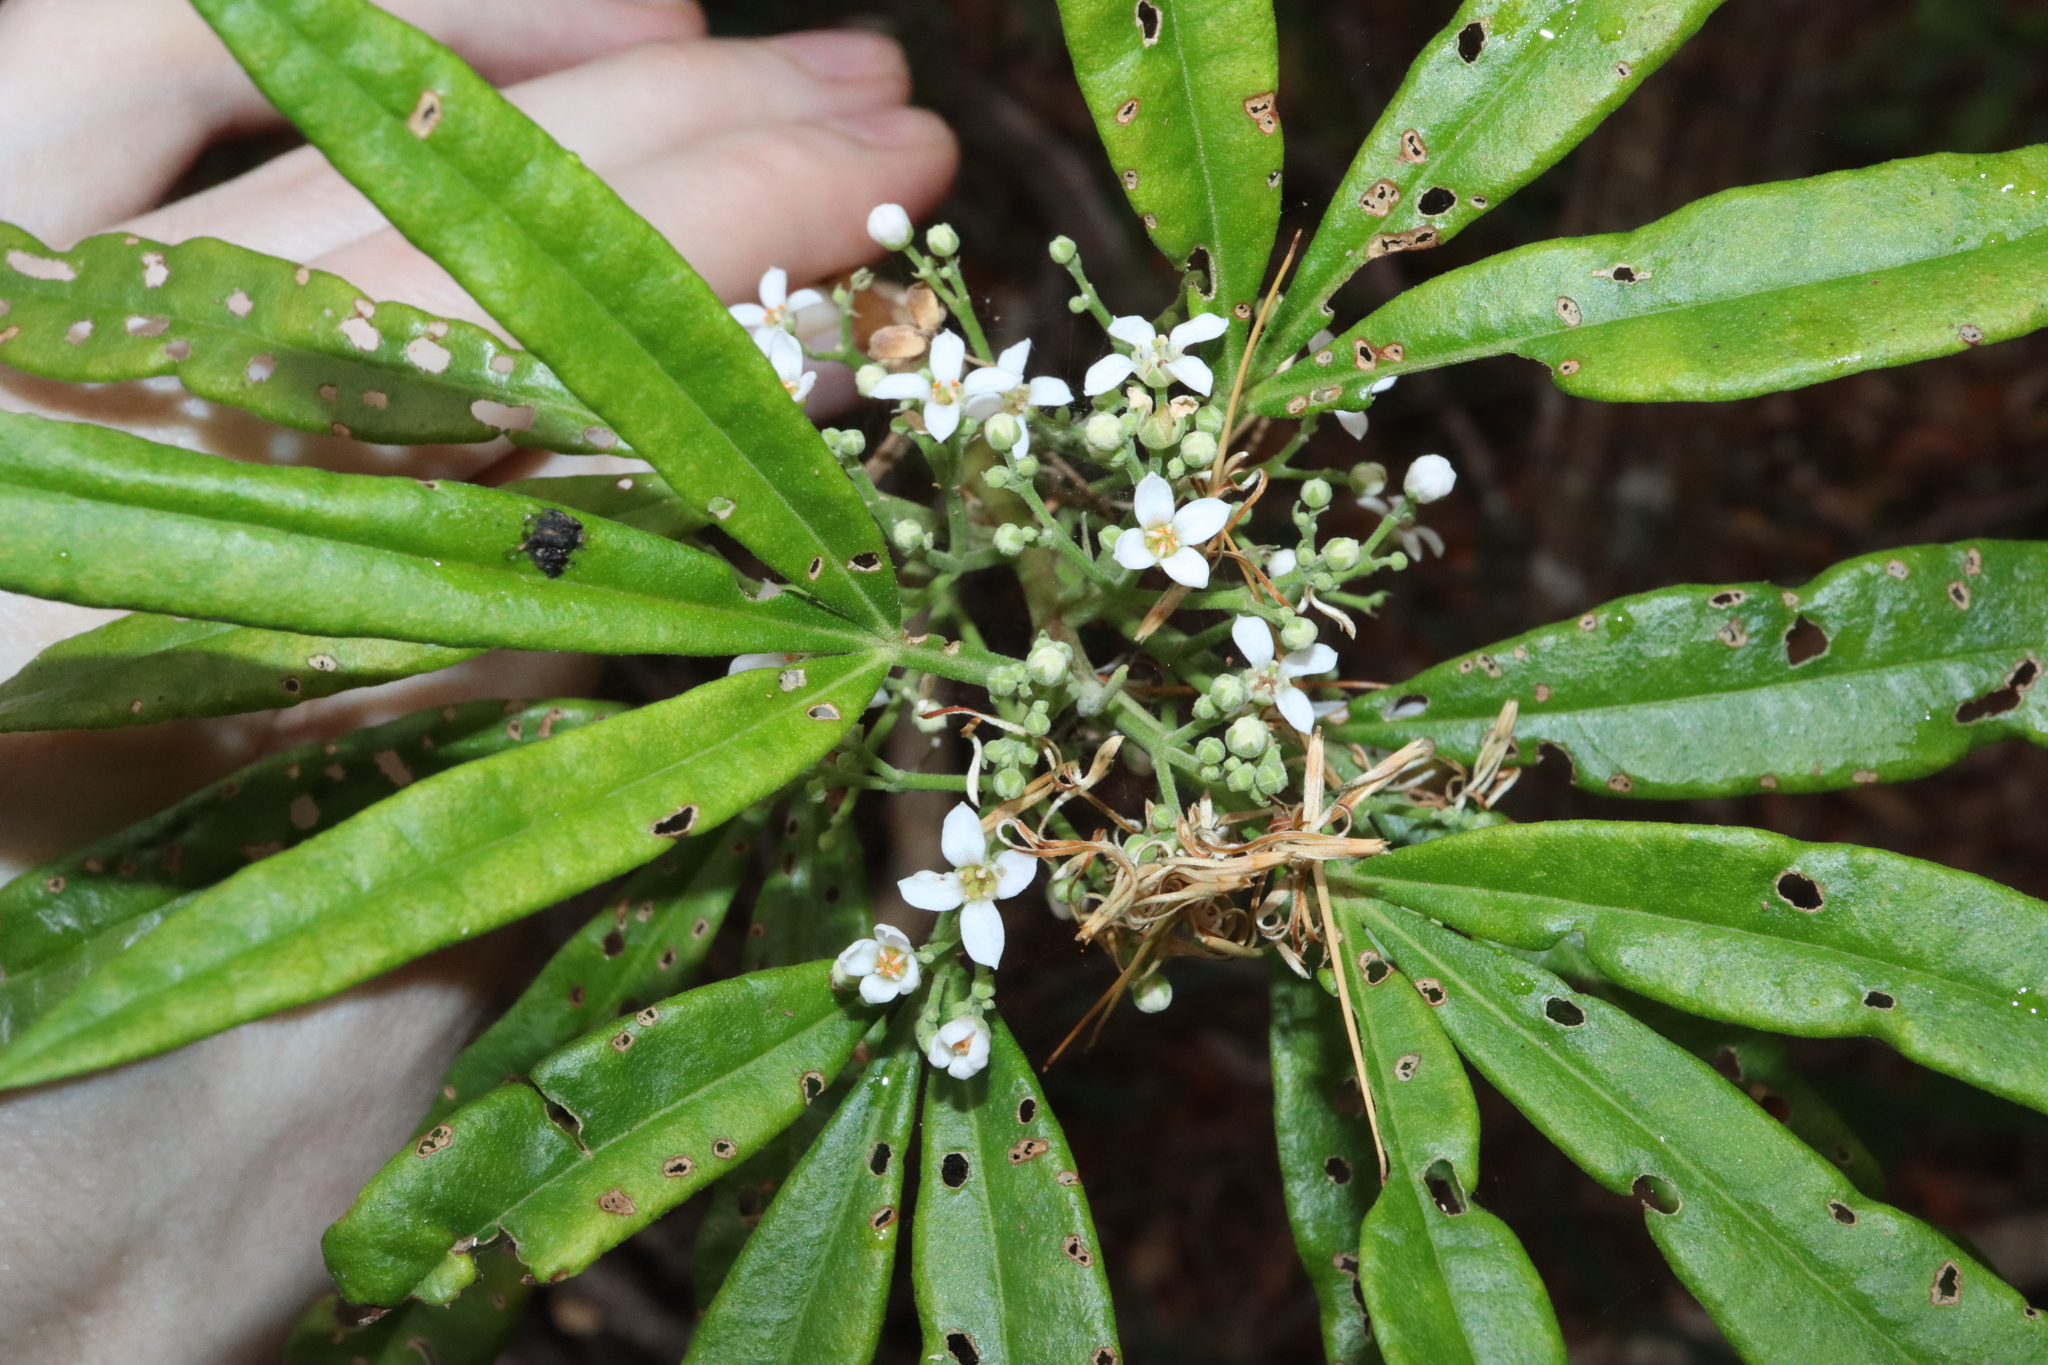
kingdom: Plantae
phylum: Tracheophyta
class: Magnoliopsida
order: Sapindales
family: Rutaceae
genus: Zieria
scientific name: Zieria arborescens
